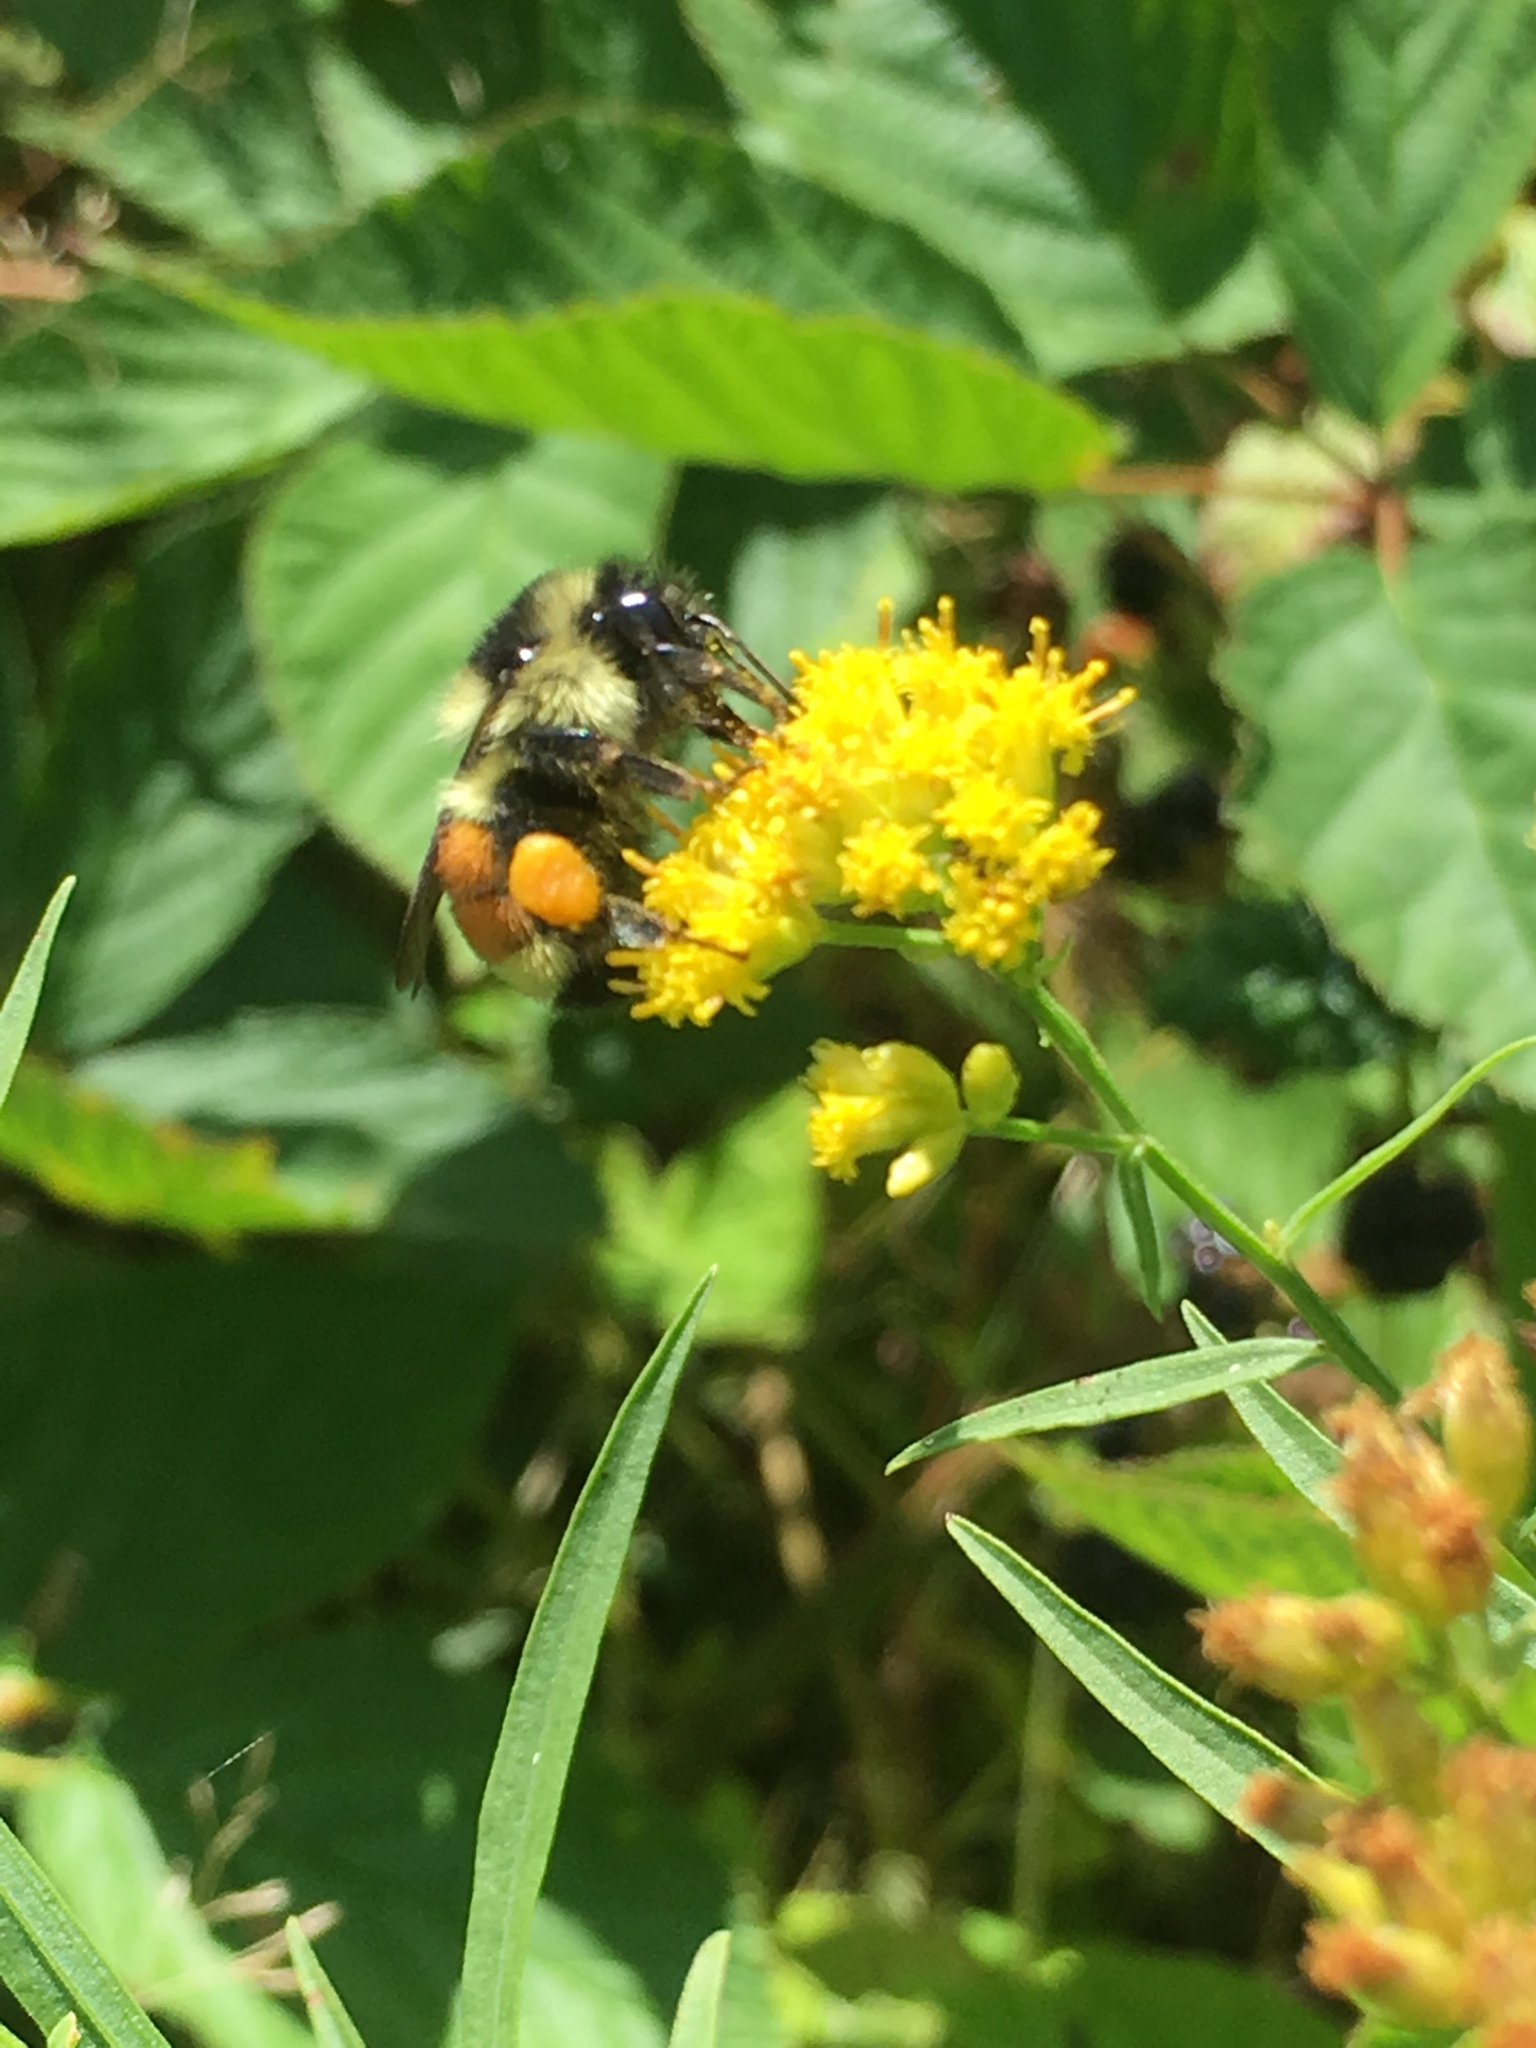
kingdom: Animalia
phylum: Arthropoda
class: Insecta
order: Hymenoptera
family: Apidae
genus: Bombus
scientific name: Bombus ternarius
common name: Tri-colored bumble bee
